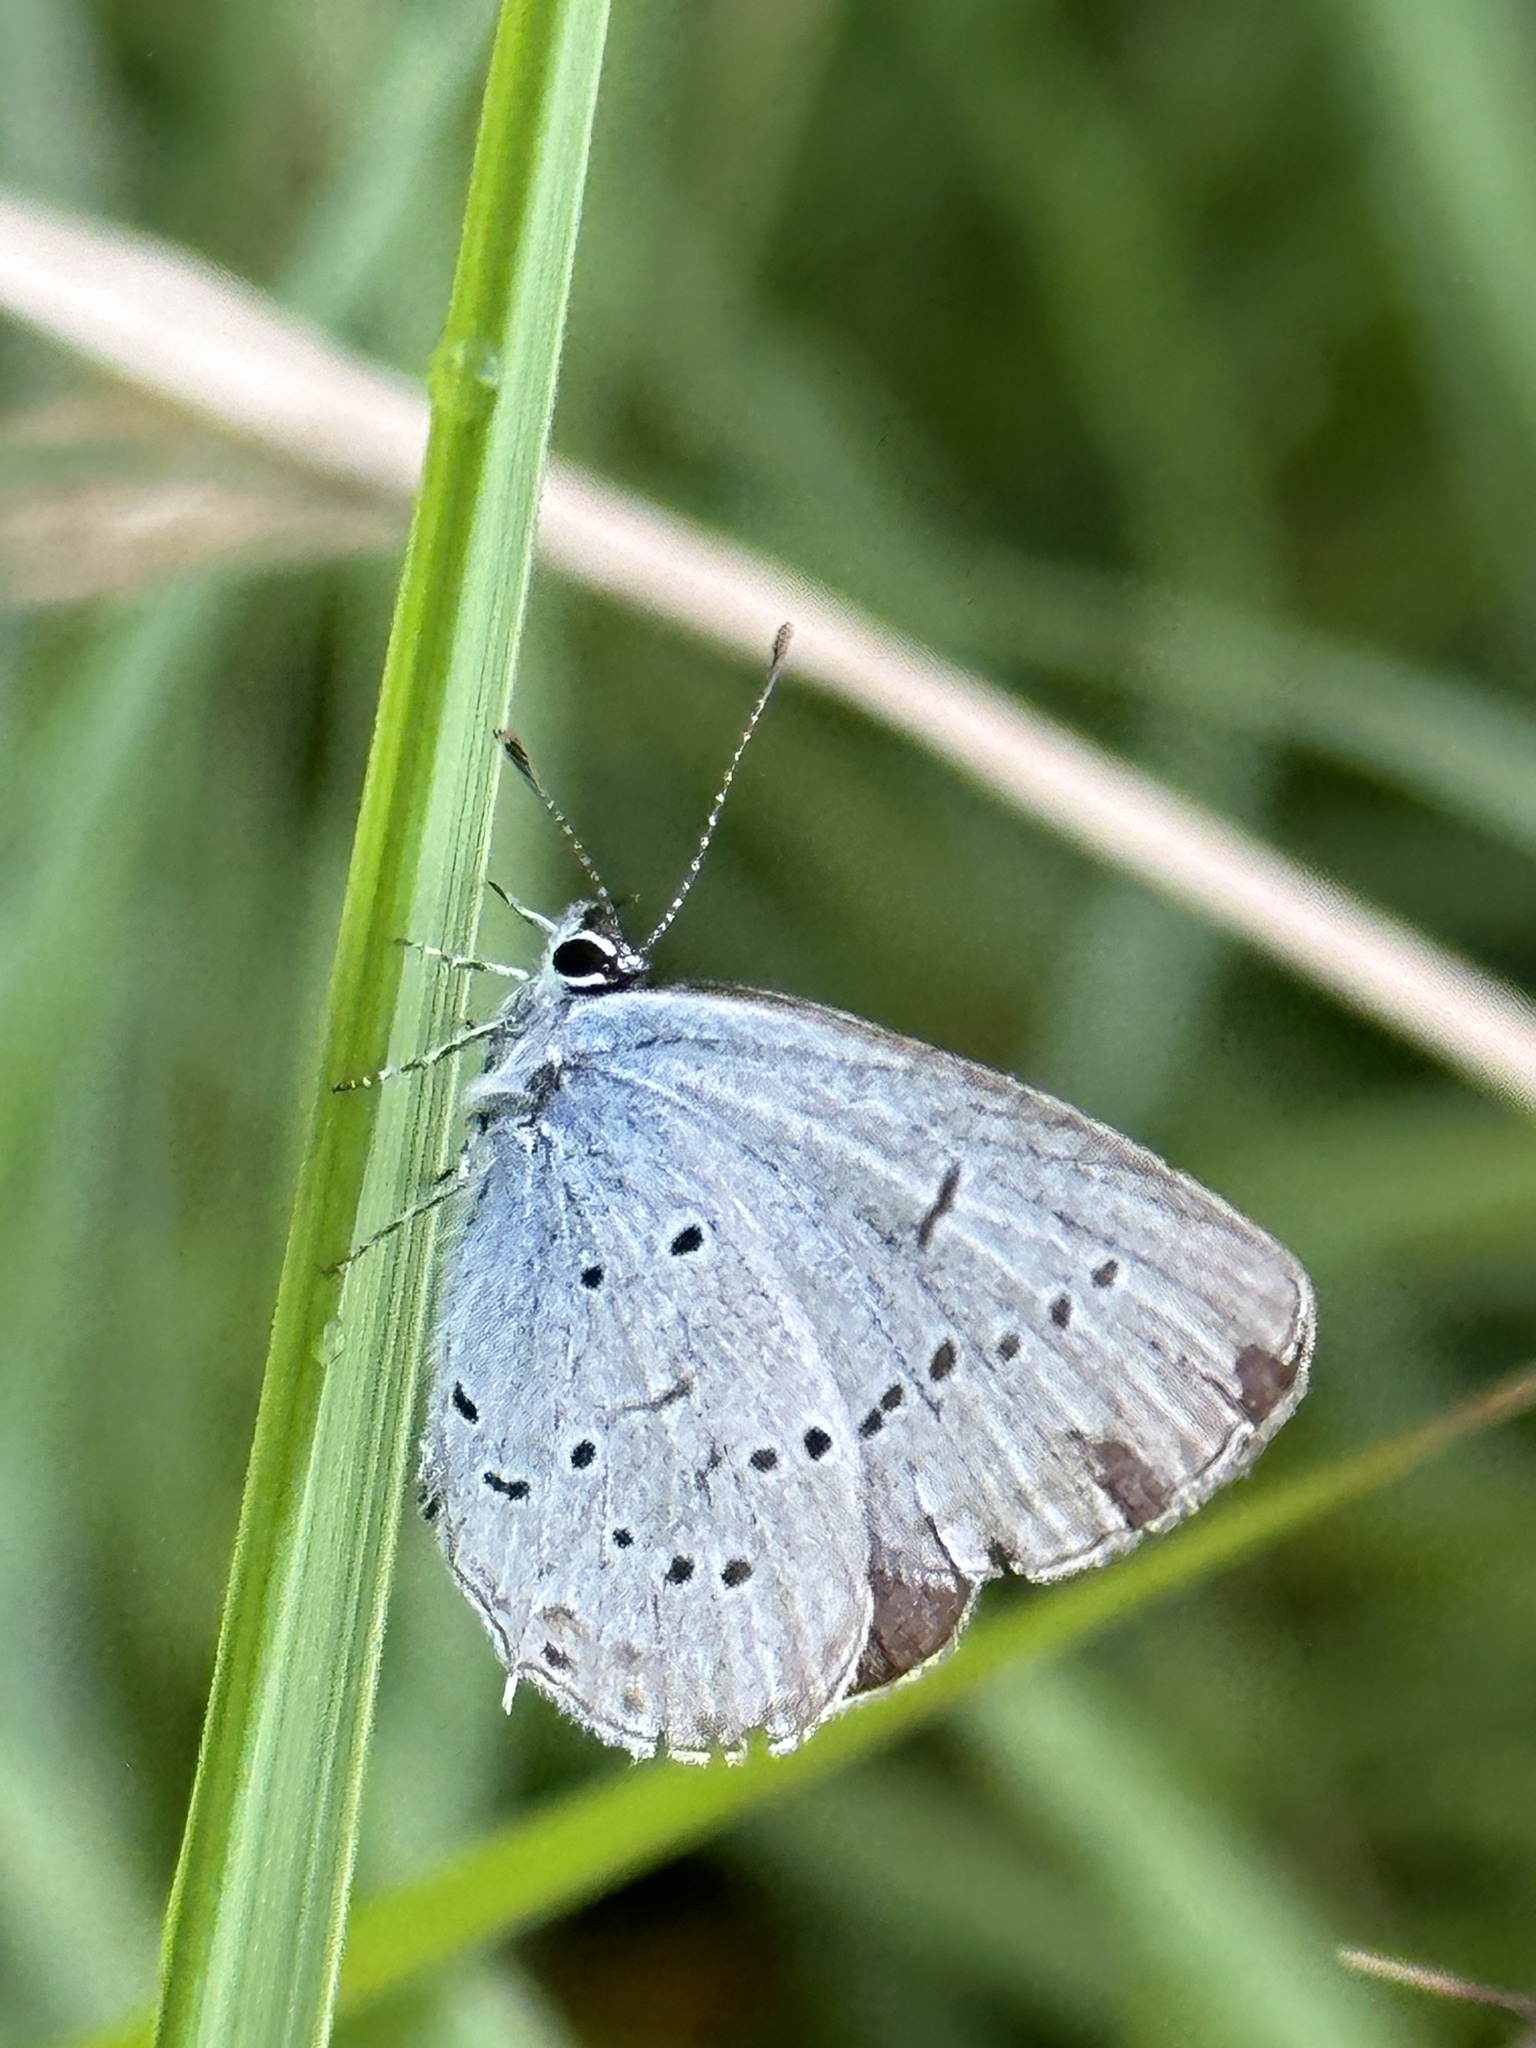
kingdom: Animalia
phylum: Arthropoda
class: Insecta
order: Lepidoptera
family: Lycaenidae
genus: Elkalyce
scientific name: Elkalyce alcetas
